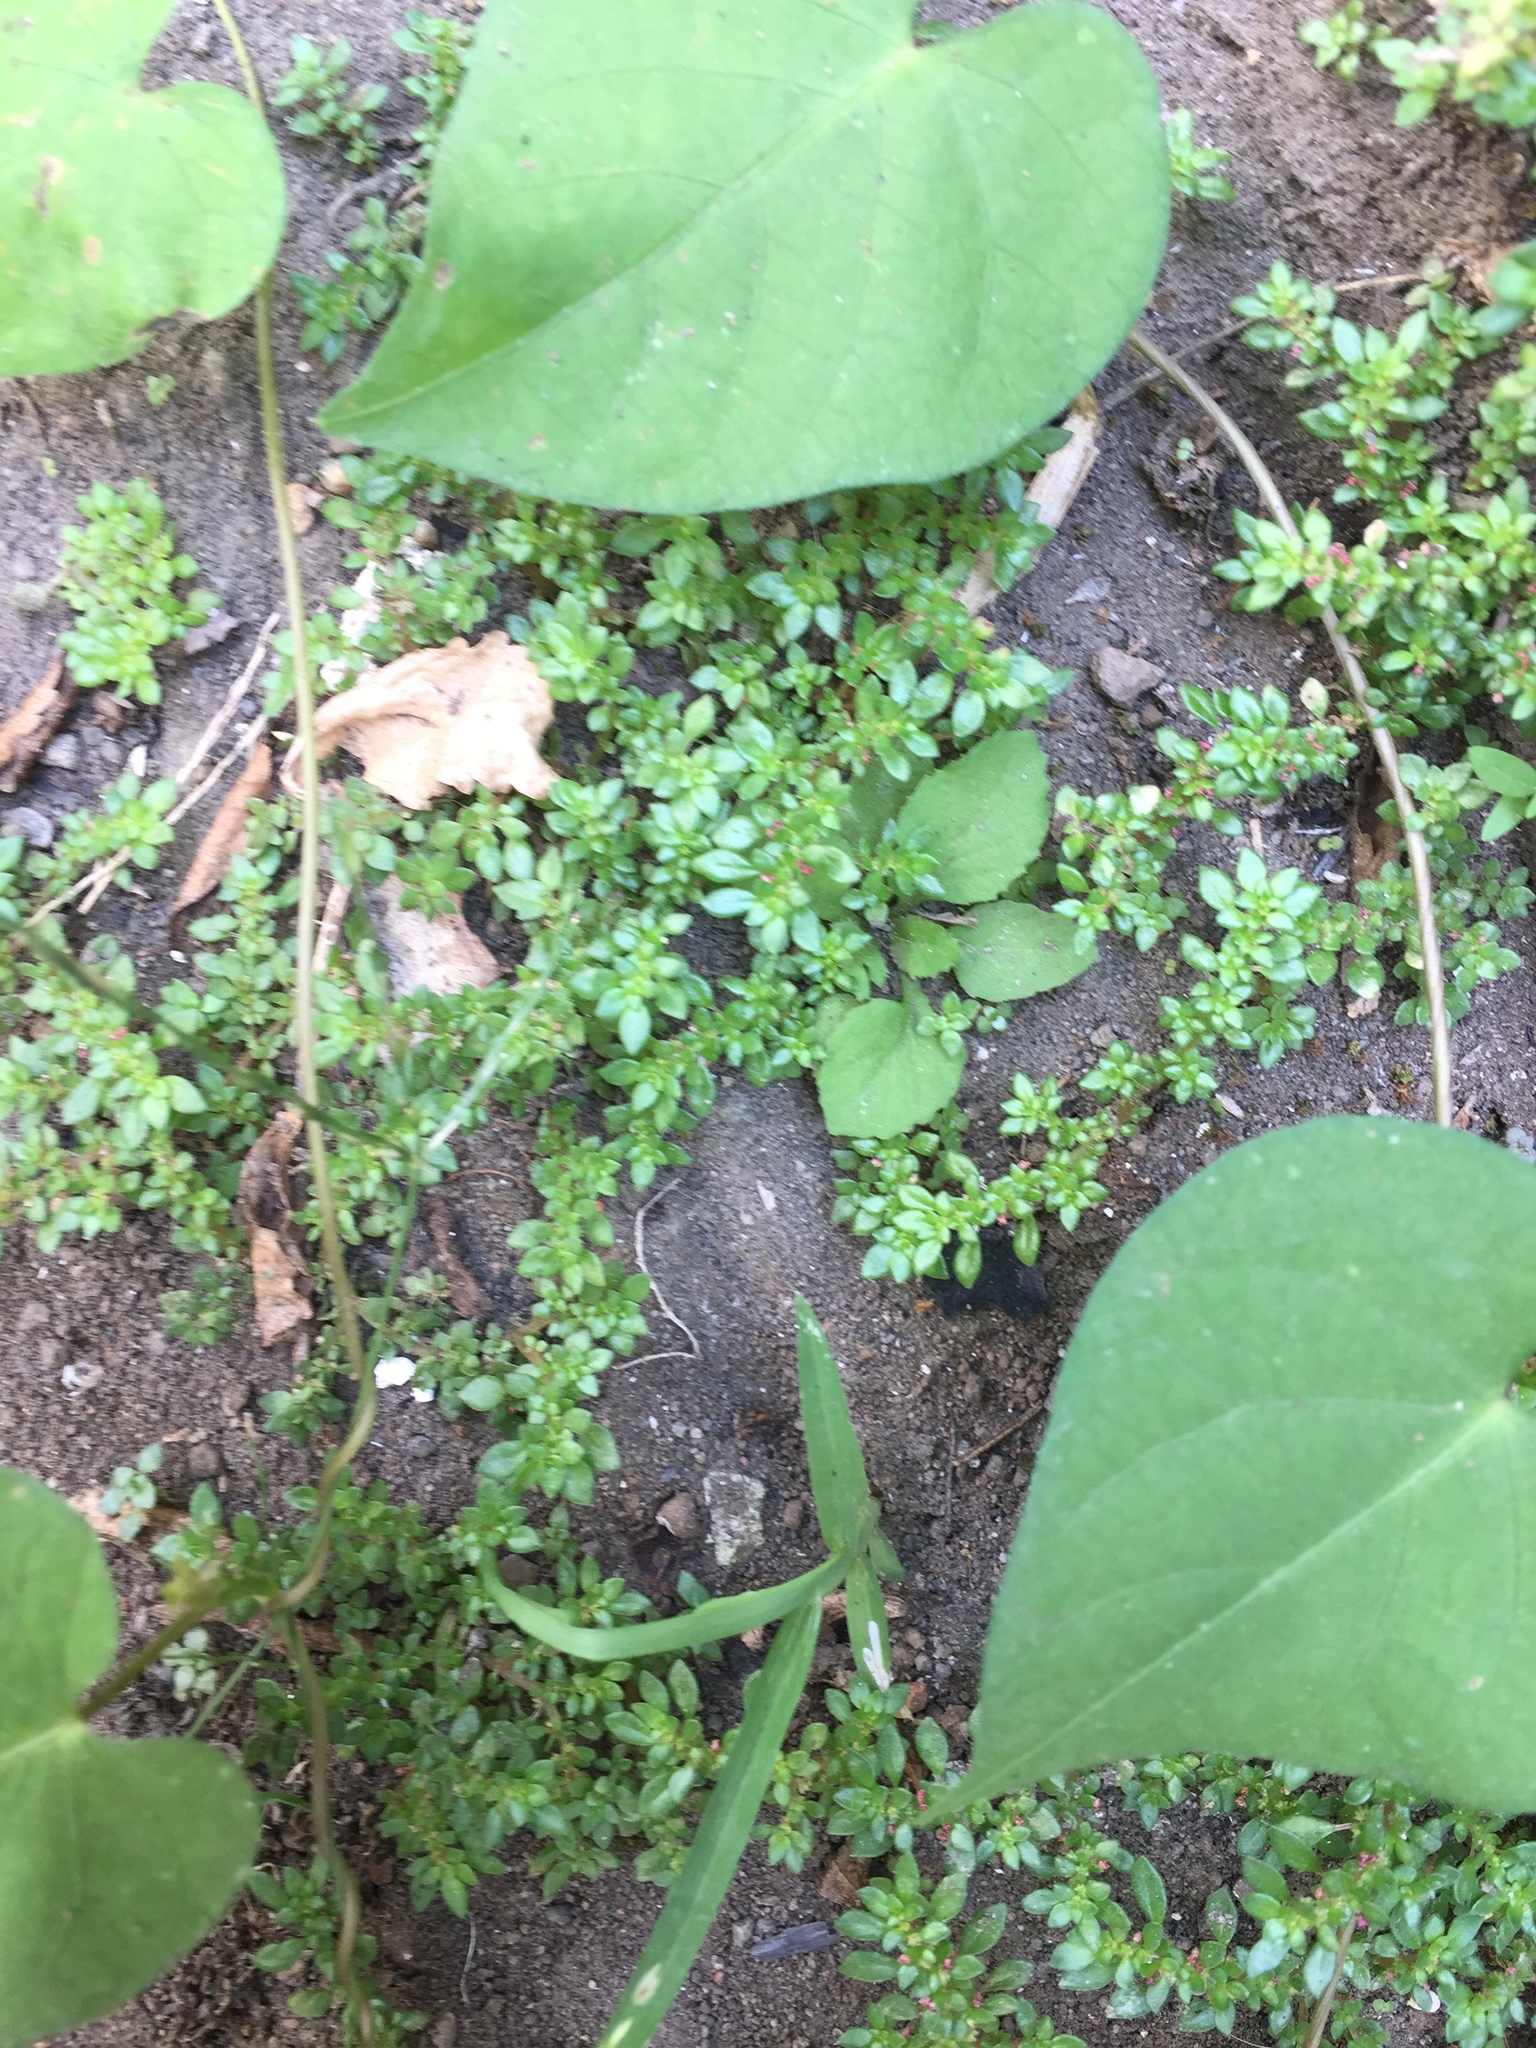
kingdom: Plantae
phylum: Tracheophyta
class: Magnoliopsida
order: Rosales
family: Urticaceae
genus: Pilea
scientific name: Pilea microphylla
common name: Artillery-plant
